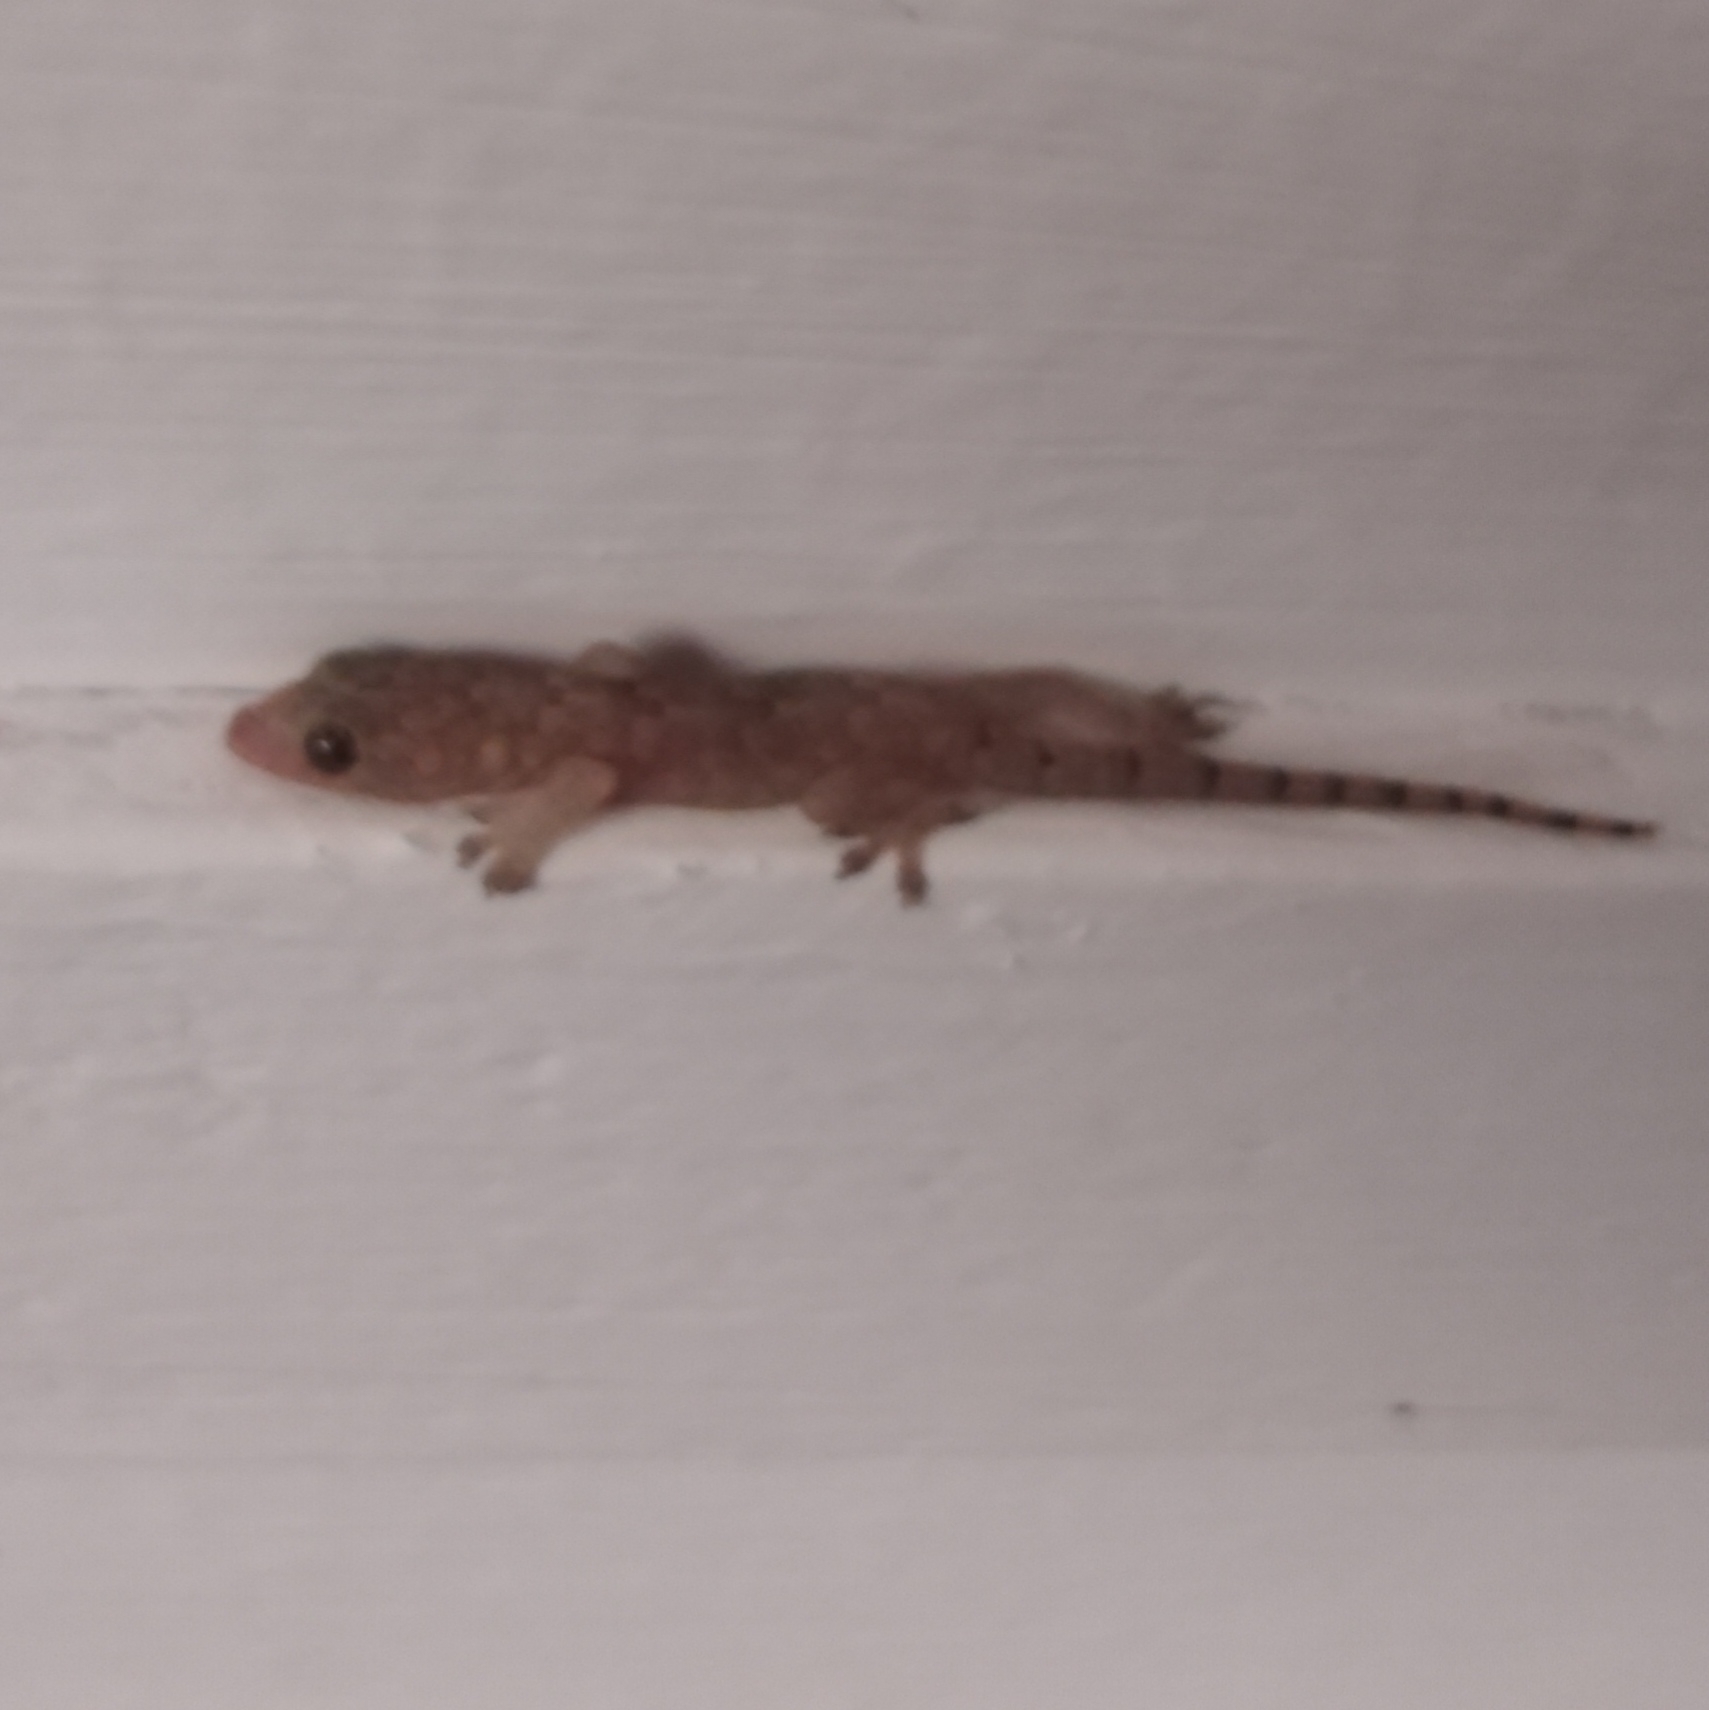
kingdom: Animalia
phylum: Chordata
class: Squamata
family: Gekkonidae
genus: Hemidactylus
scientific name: Hemidactylus mabouia
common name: House gecko
